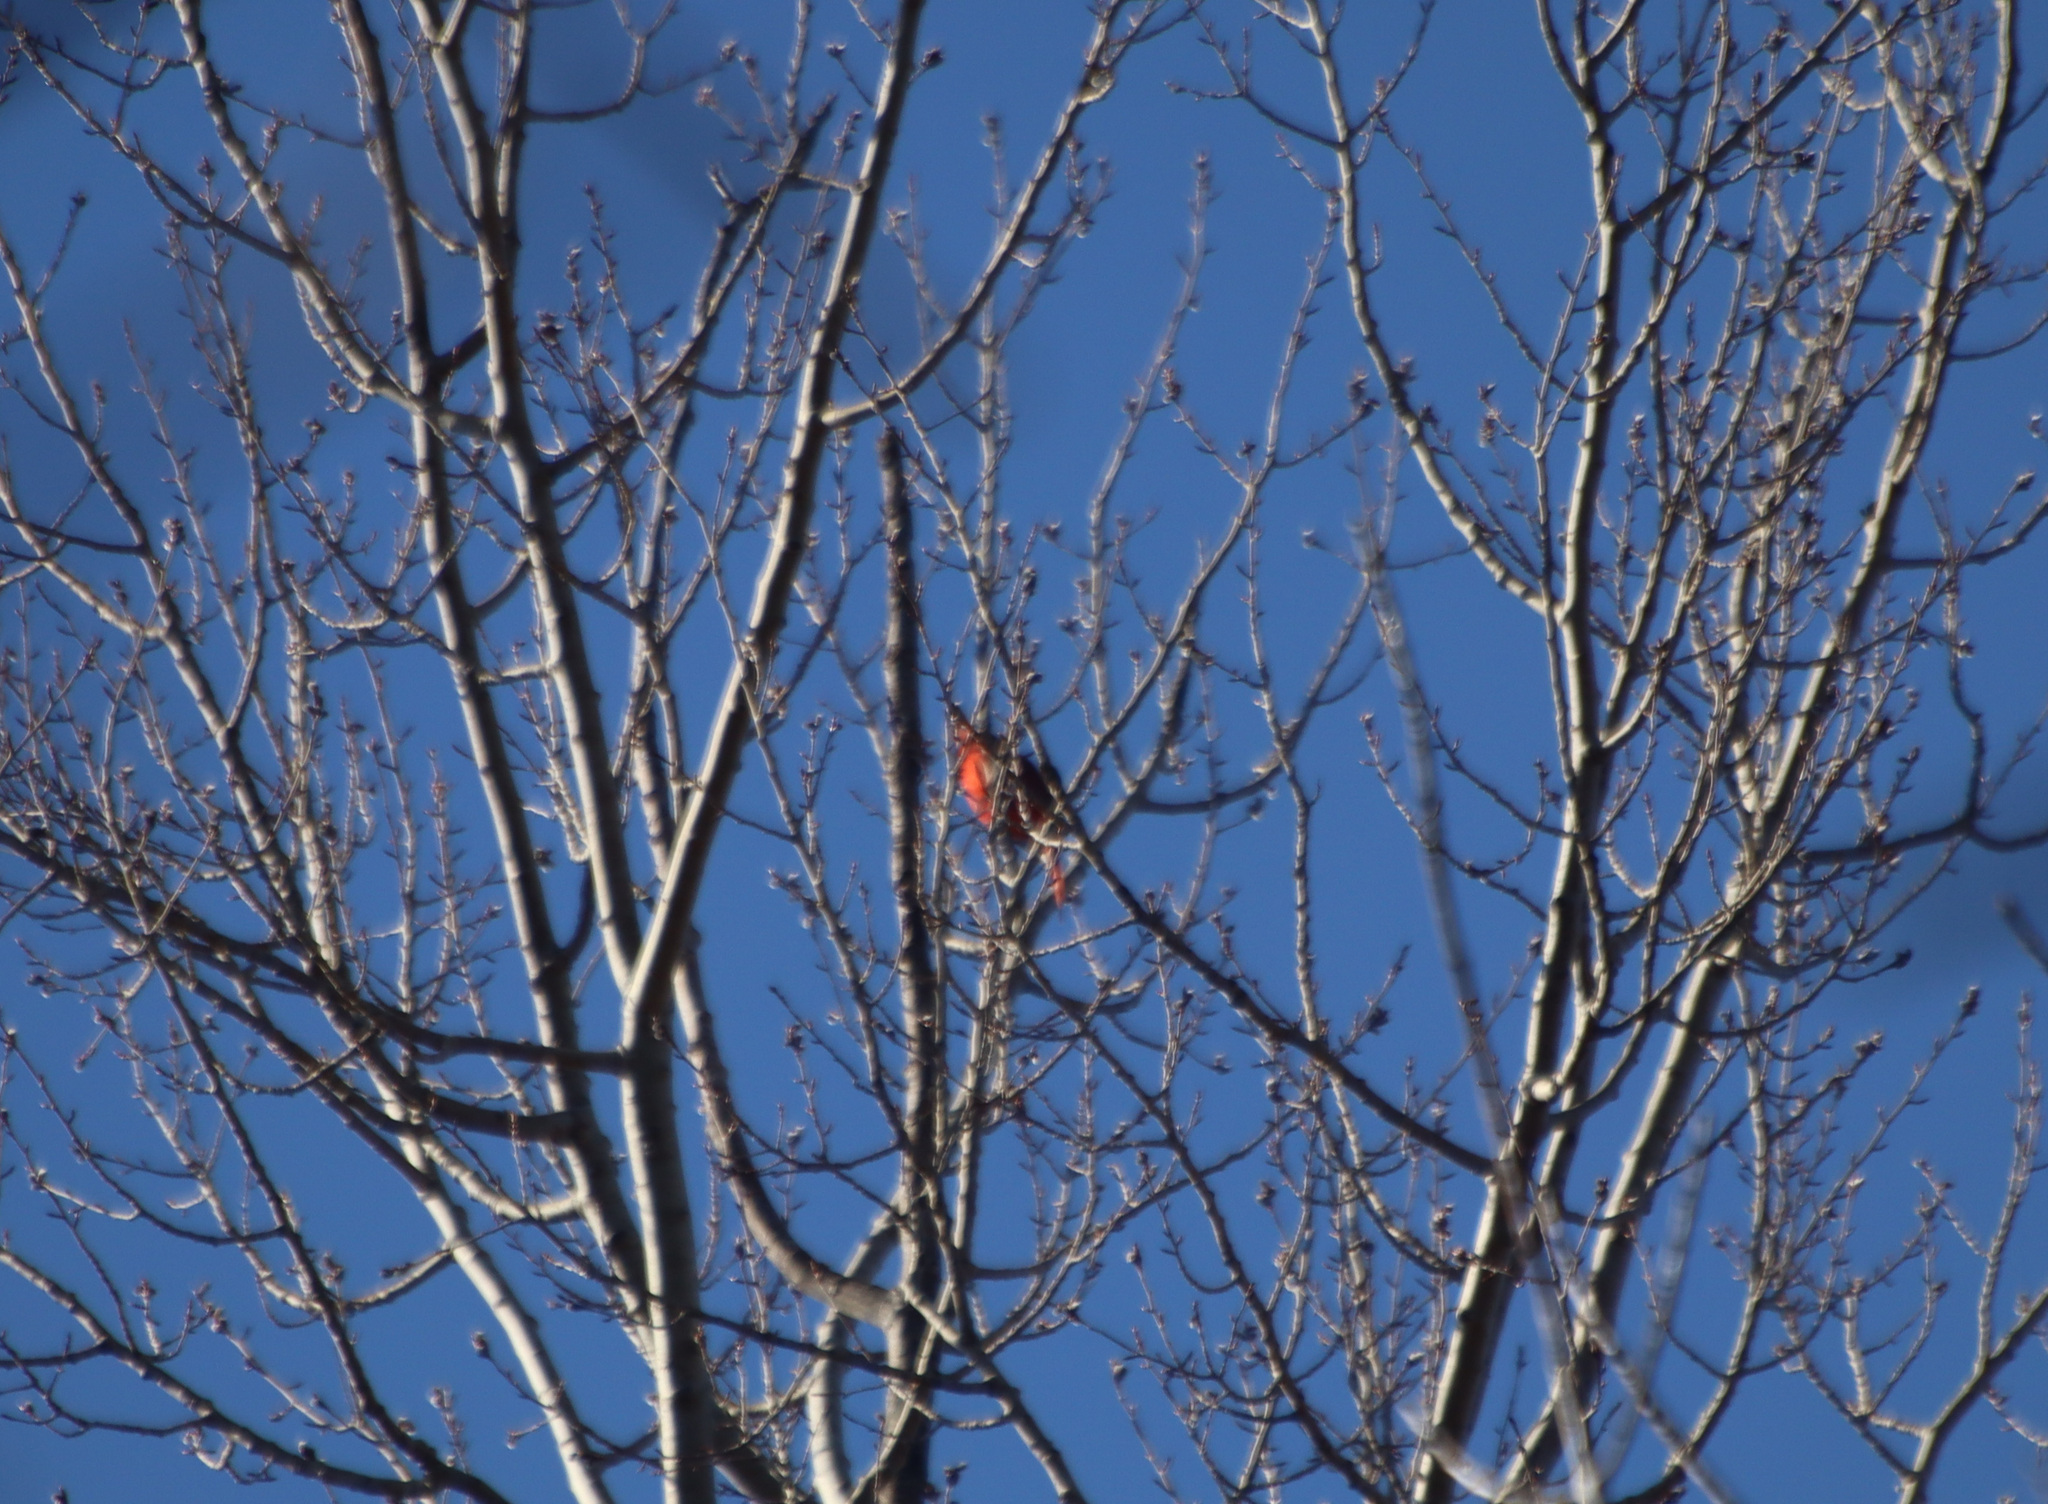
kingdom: Animalia
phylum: Chordata
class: Aves
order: Passeriformes
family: Cardinalidae
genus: Cardinalis
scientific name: Cardinalis cardinalis
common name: Northern cardinal
